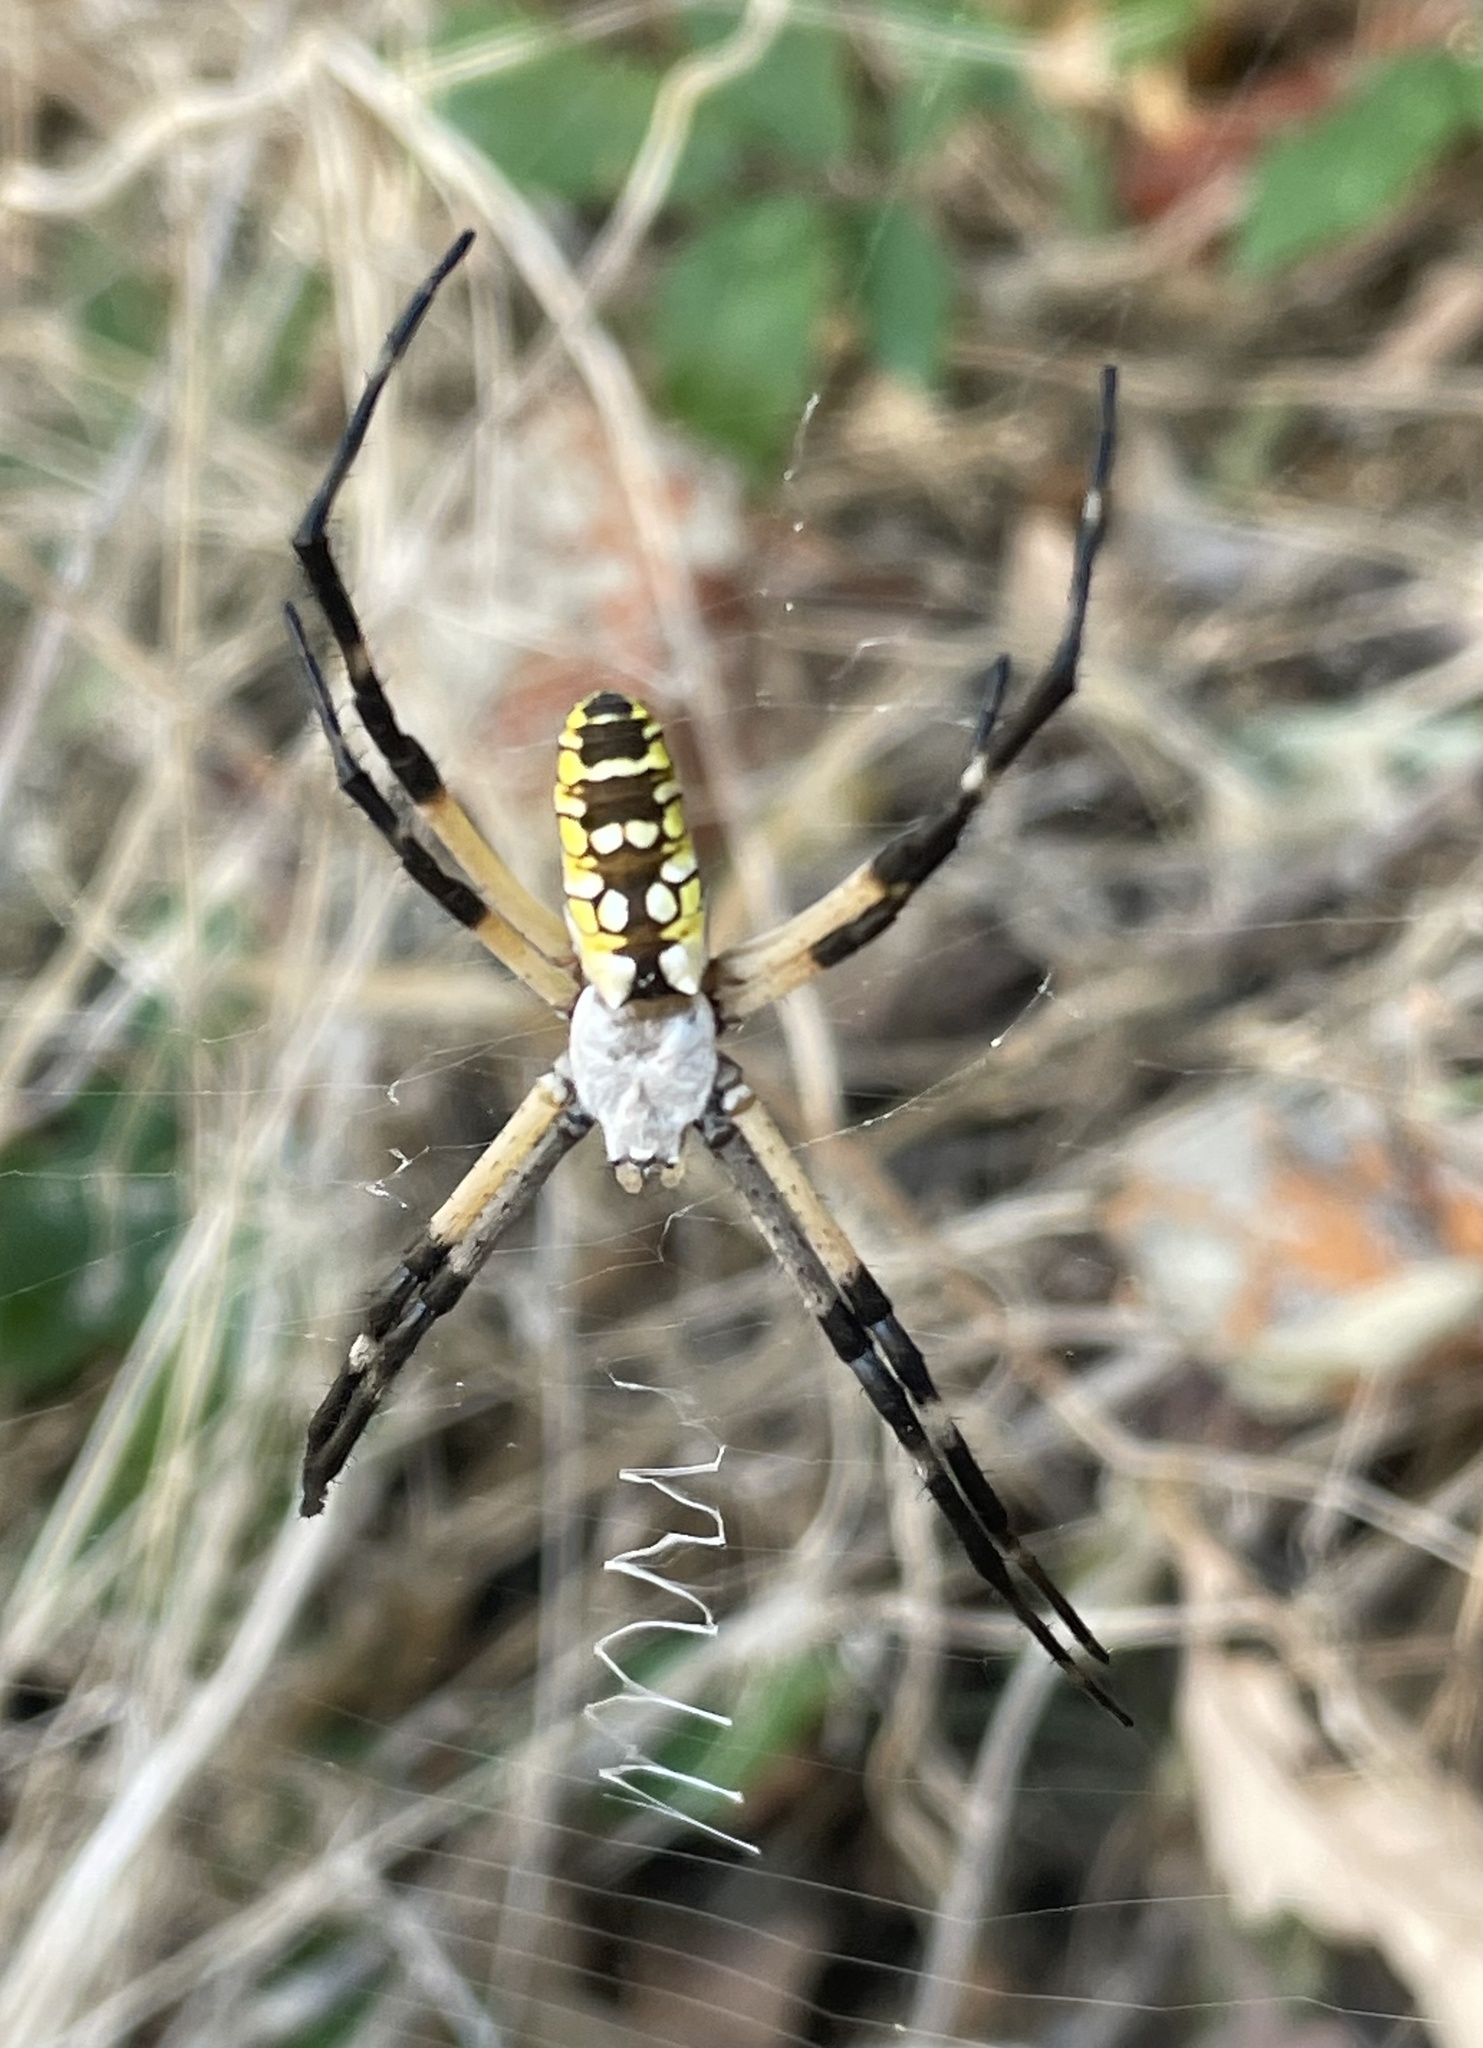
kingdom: Animalia
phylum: Arthropoda
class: Arachnida
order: Araneae
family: Araneidae
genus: Argiope
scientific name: Argiope aurantia
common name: Orb weavers
